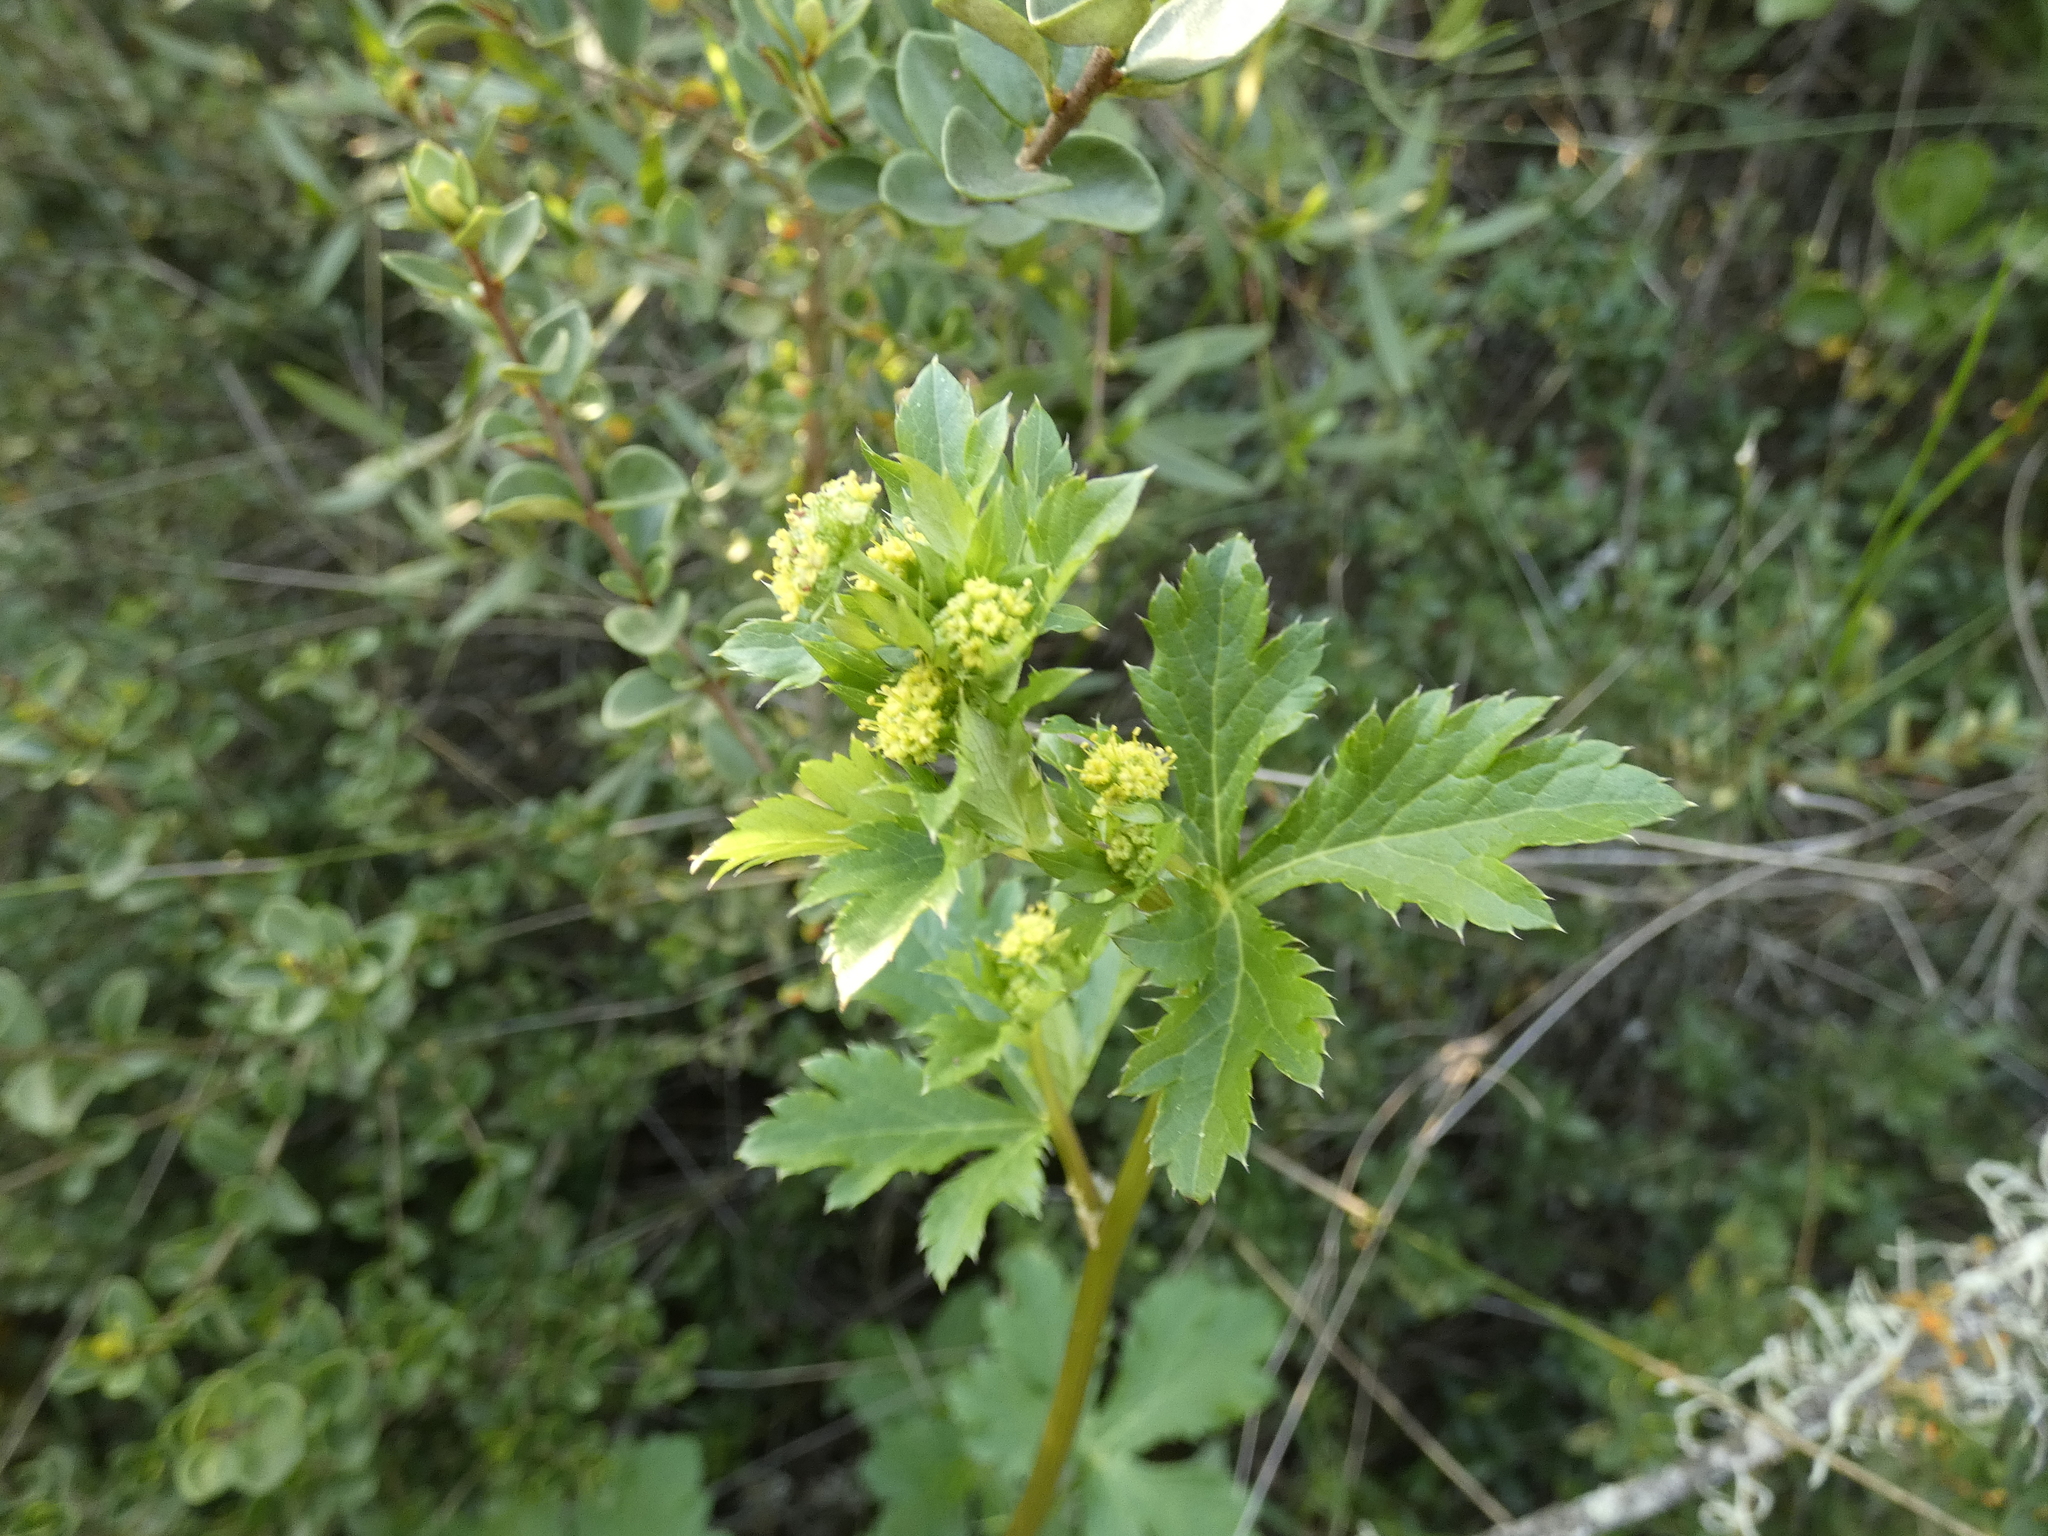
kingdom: Plantae
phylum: Tracheophyta
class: Magnoliopsida
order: Apiales
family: Apiaceae
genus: Sanicula
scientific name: Sanicula crassicaulis
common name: Western snakeroot
